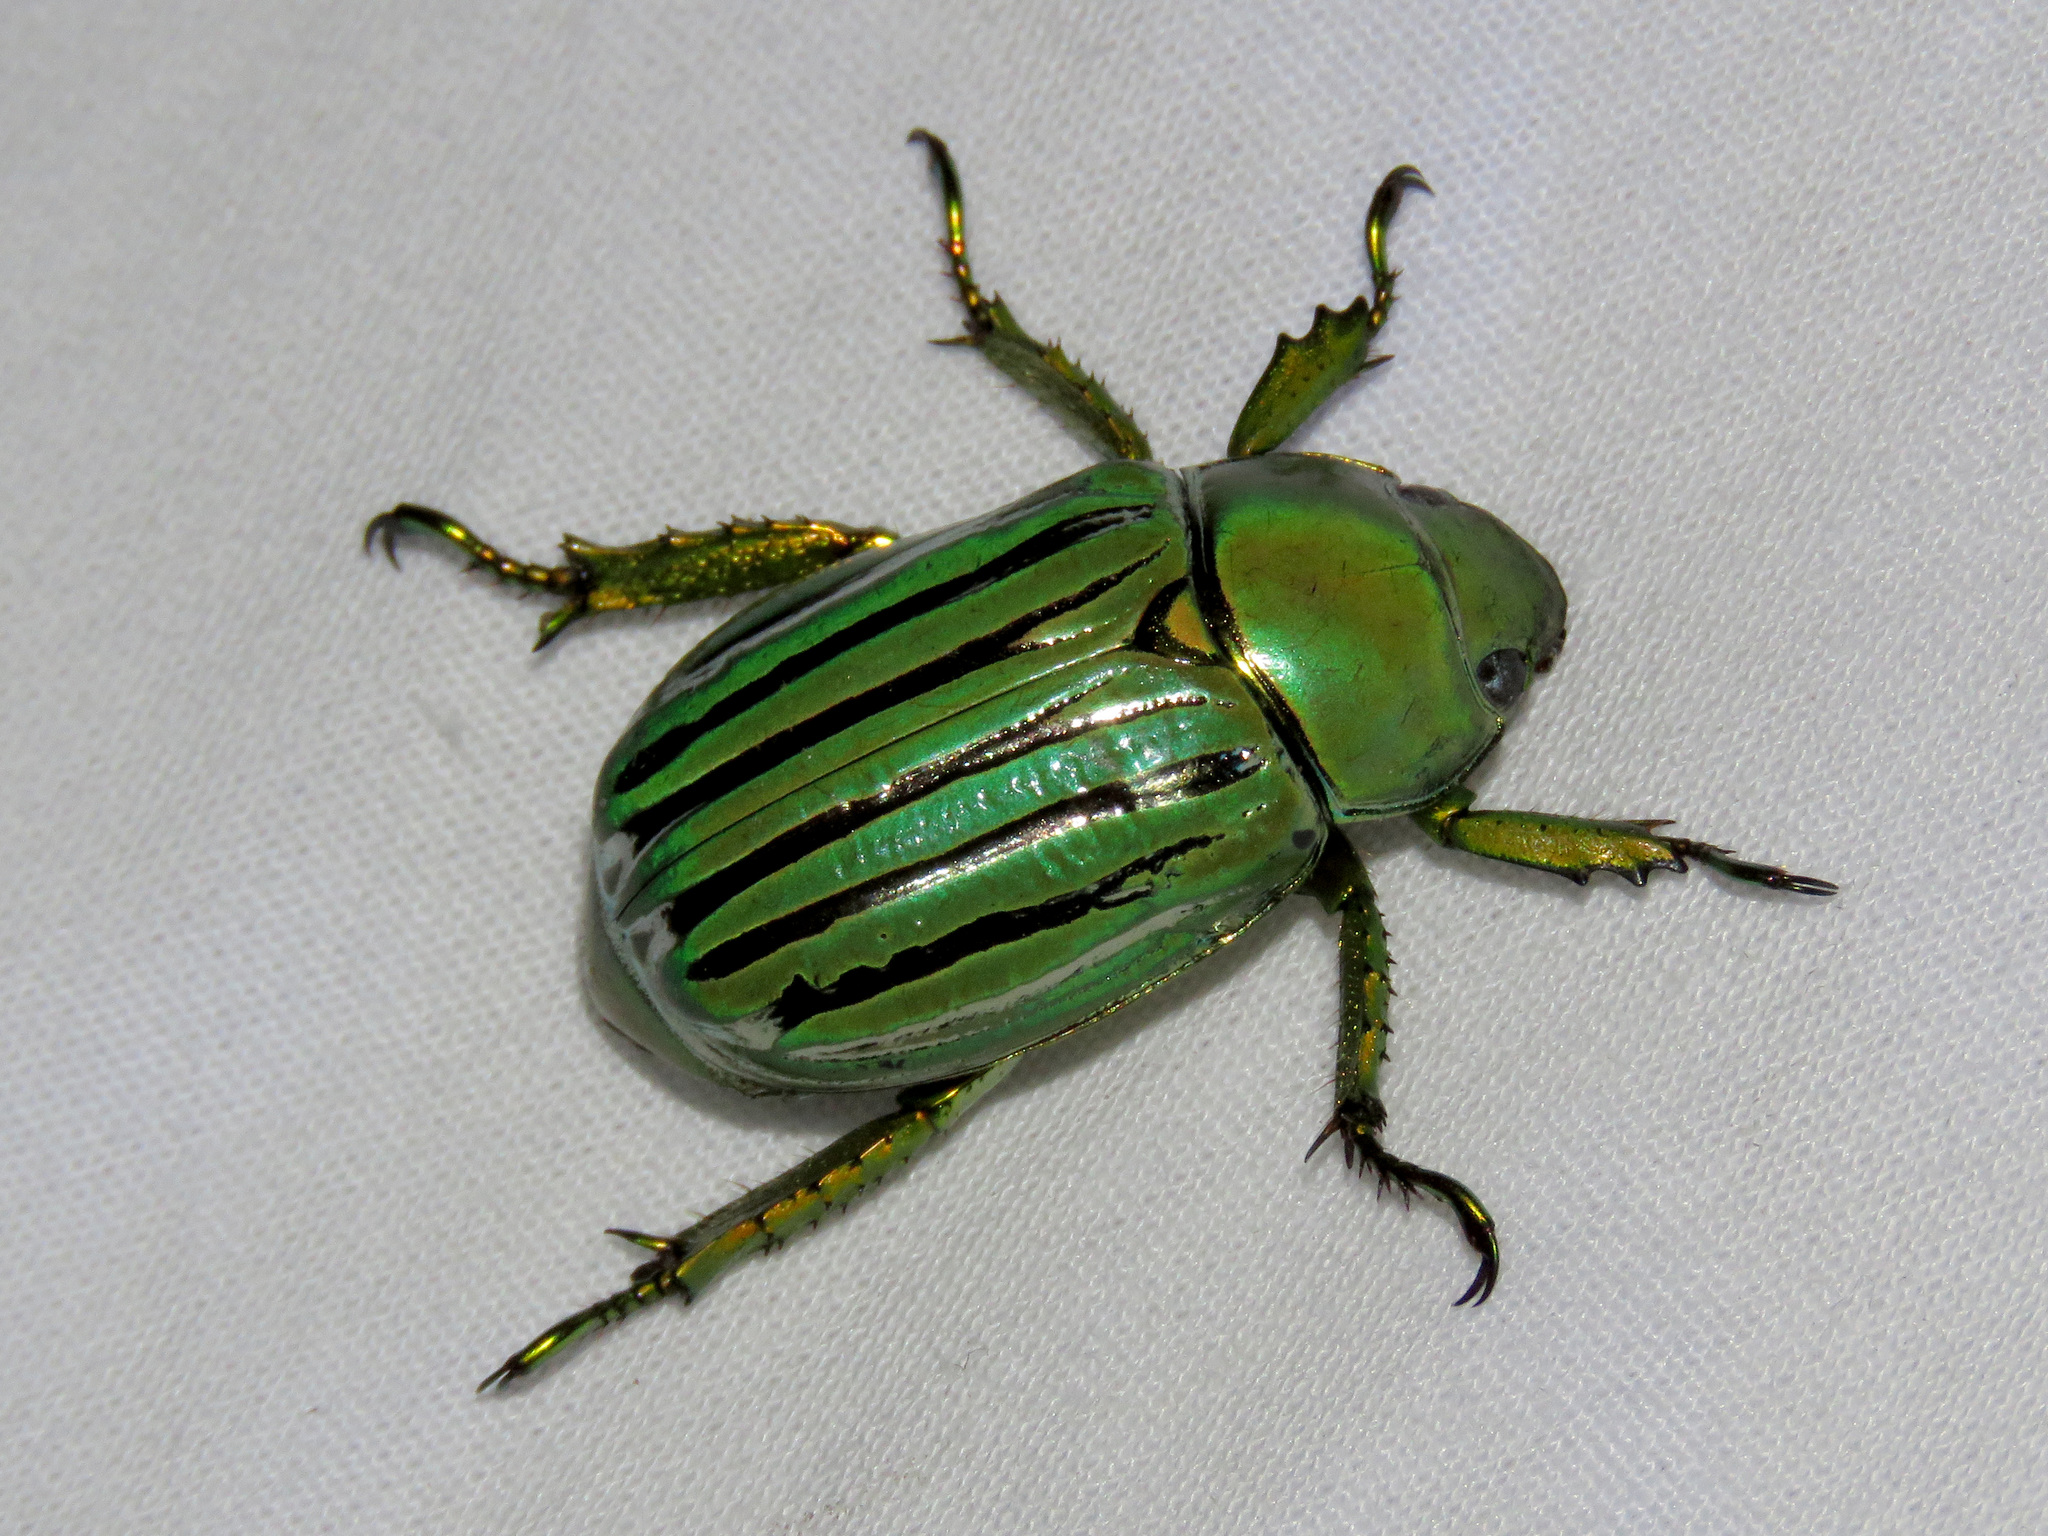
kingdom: Animalia
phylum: Arthropoda
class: Insecta
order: Coleoptera
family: Scarabaeidae
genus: Chrysina
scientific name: Chrysina gloriosa
